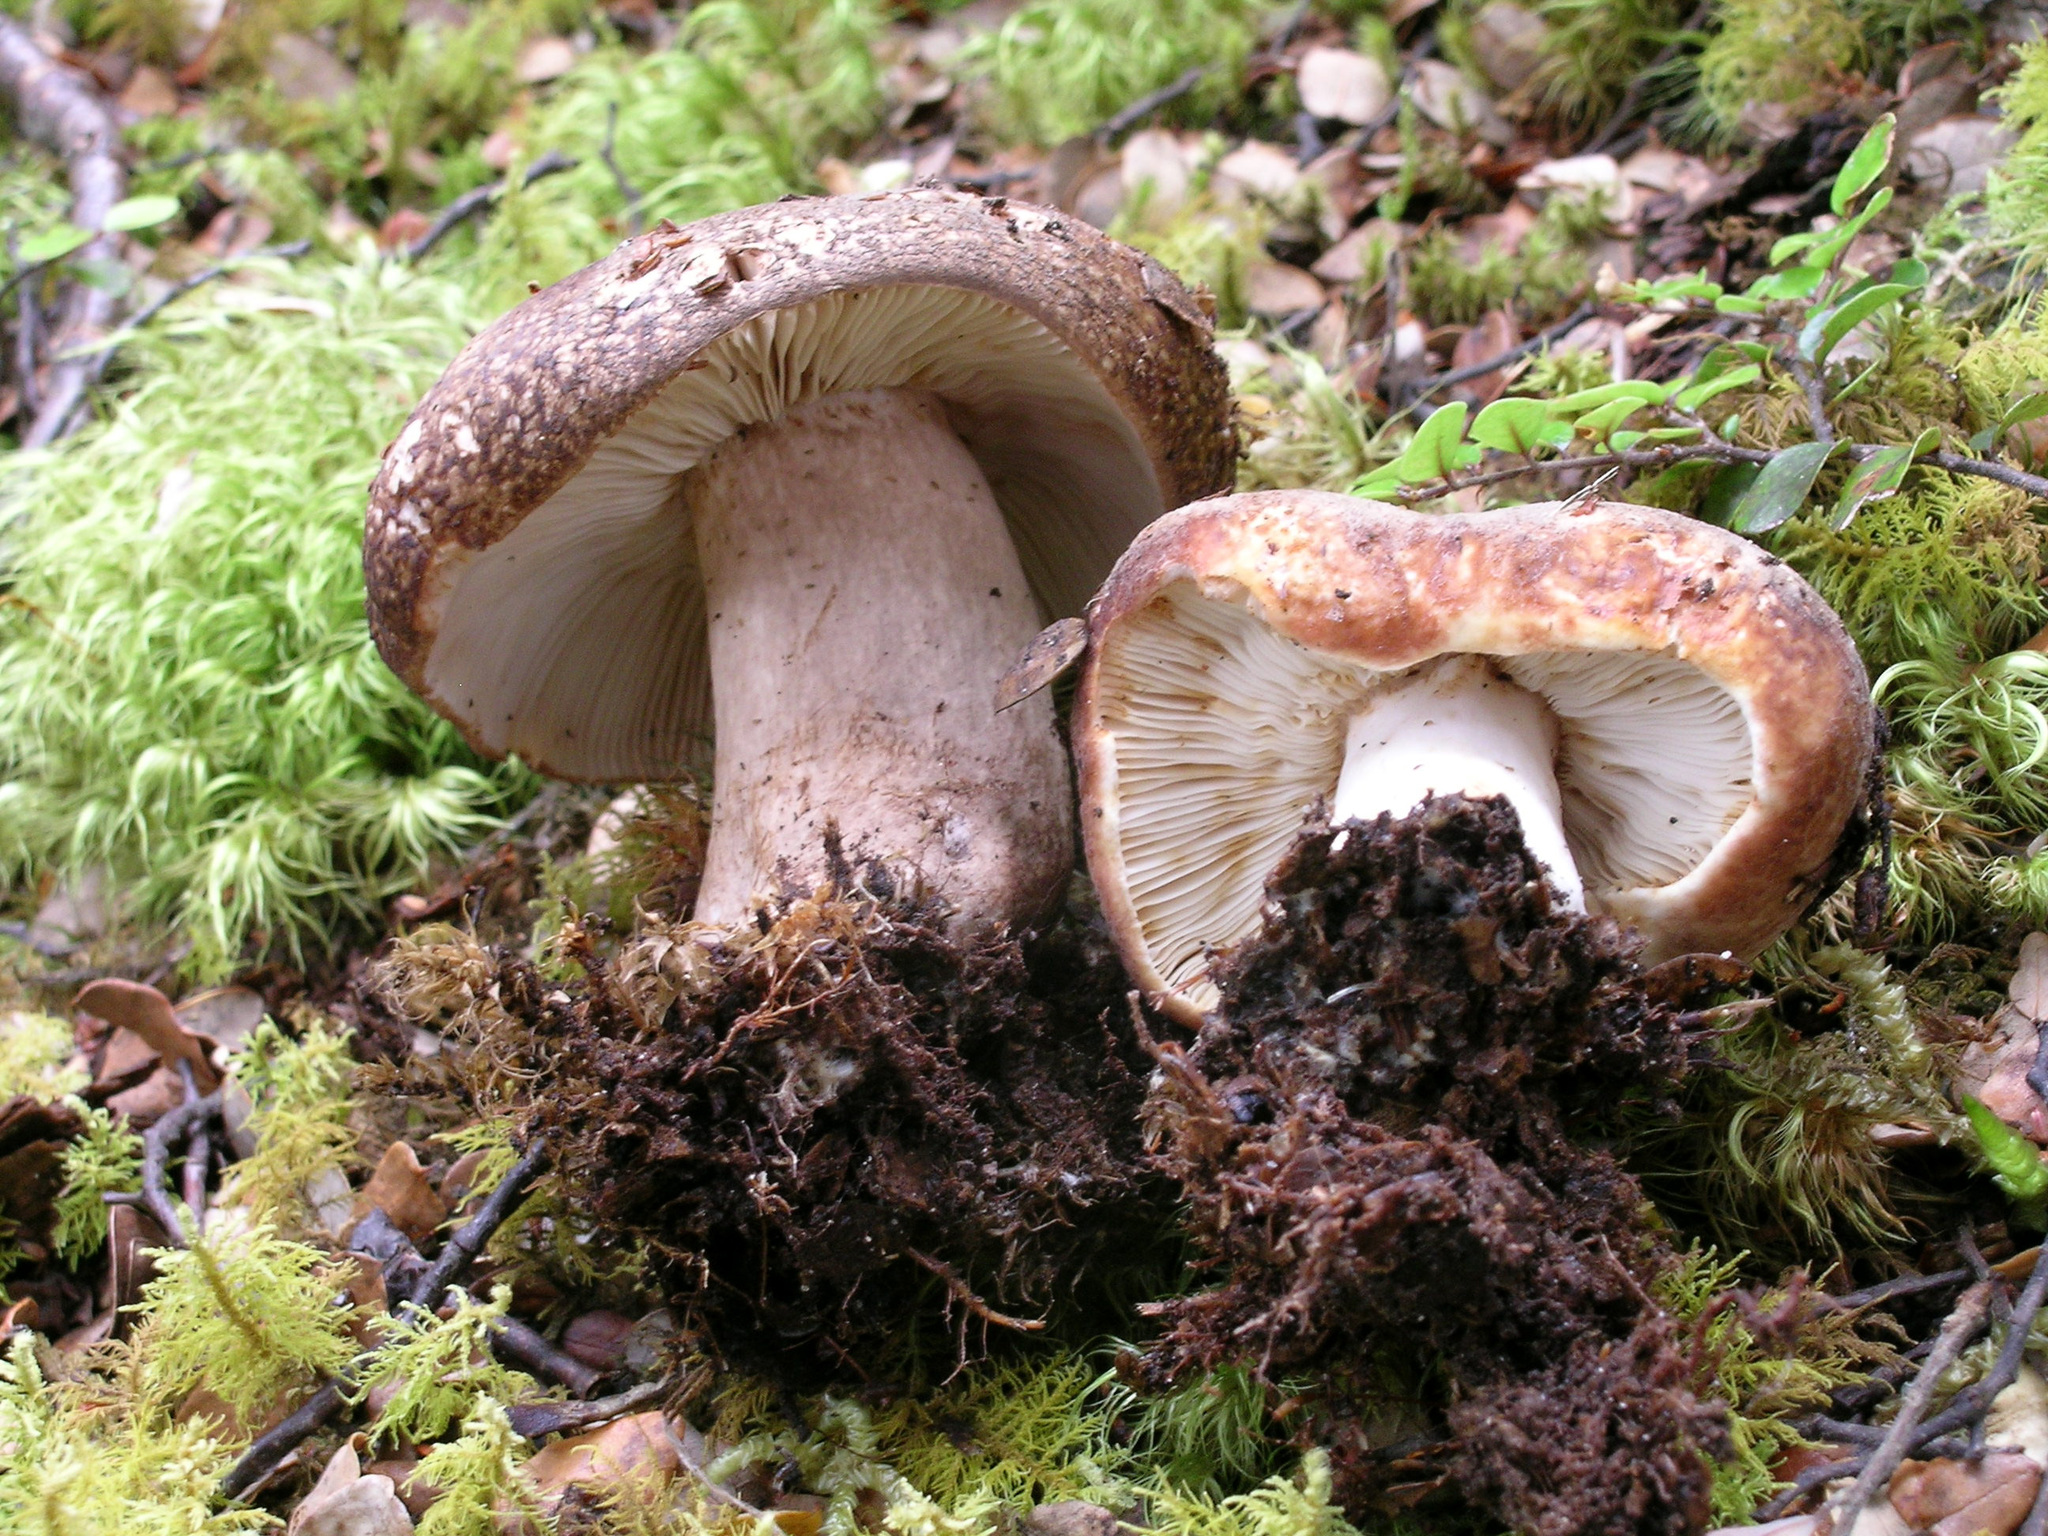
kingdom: Fungi
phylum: Basidiomycota
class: Agaricomycetes
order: Russulales
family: Russulaceae
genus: Russula
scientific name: Russula rimulosa
